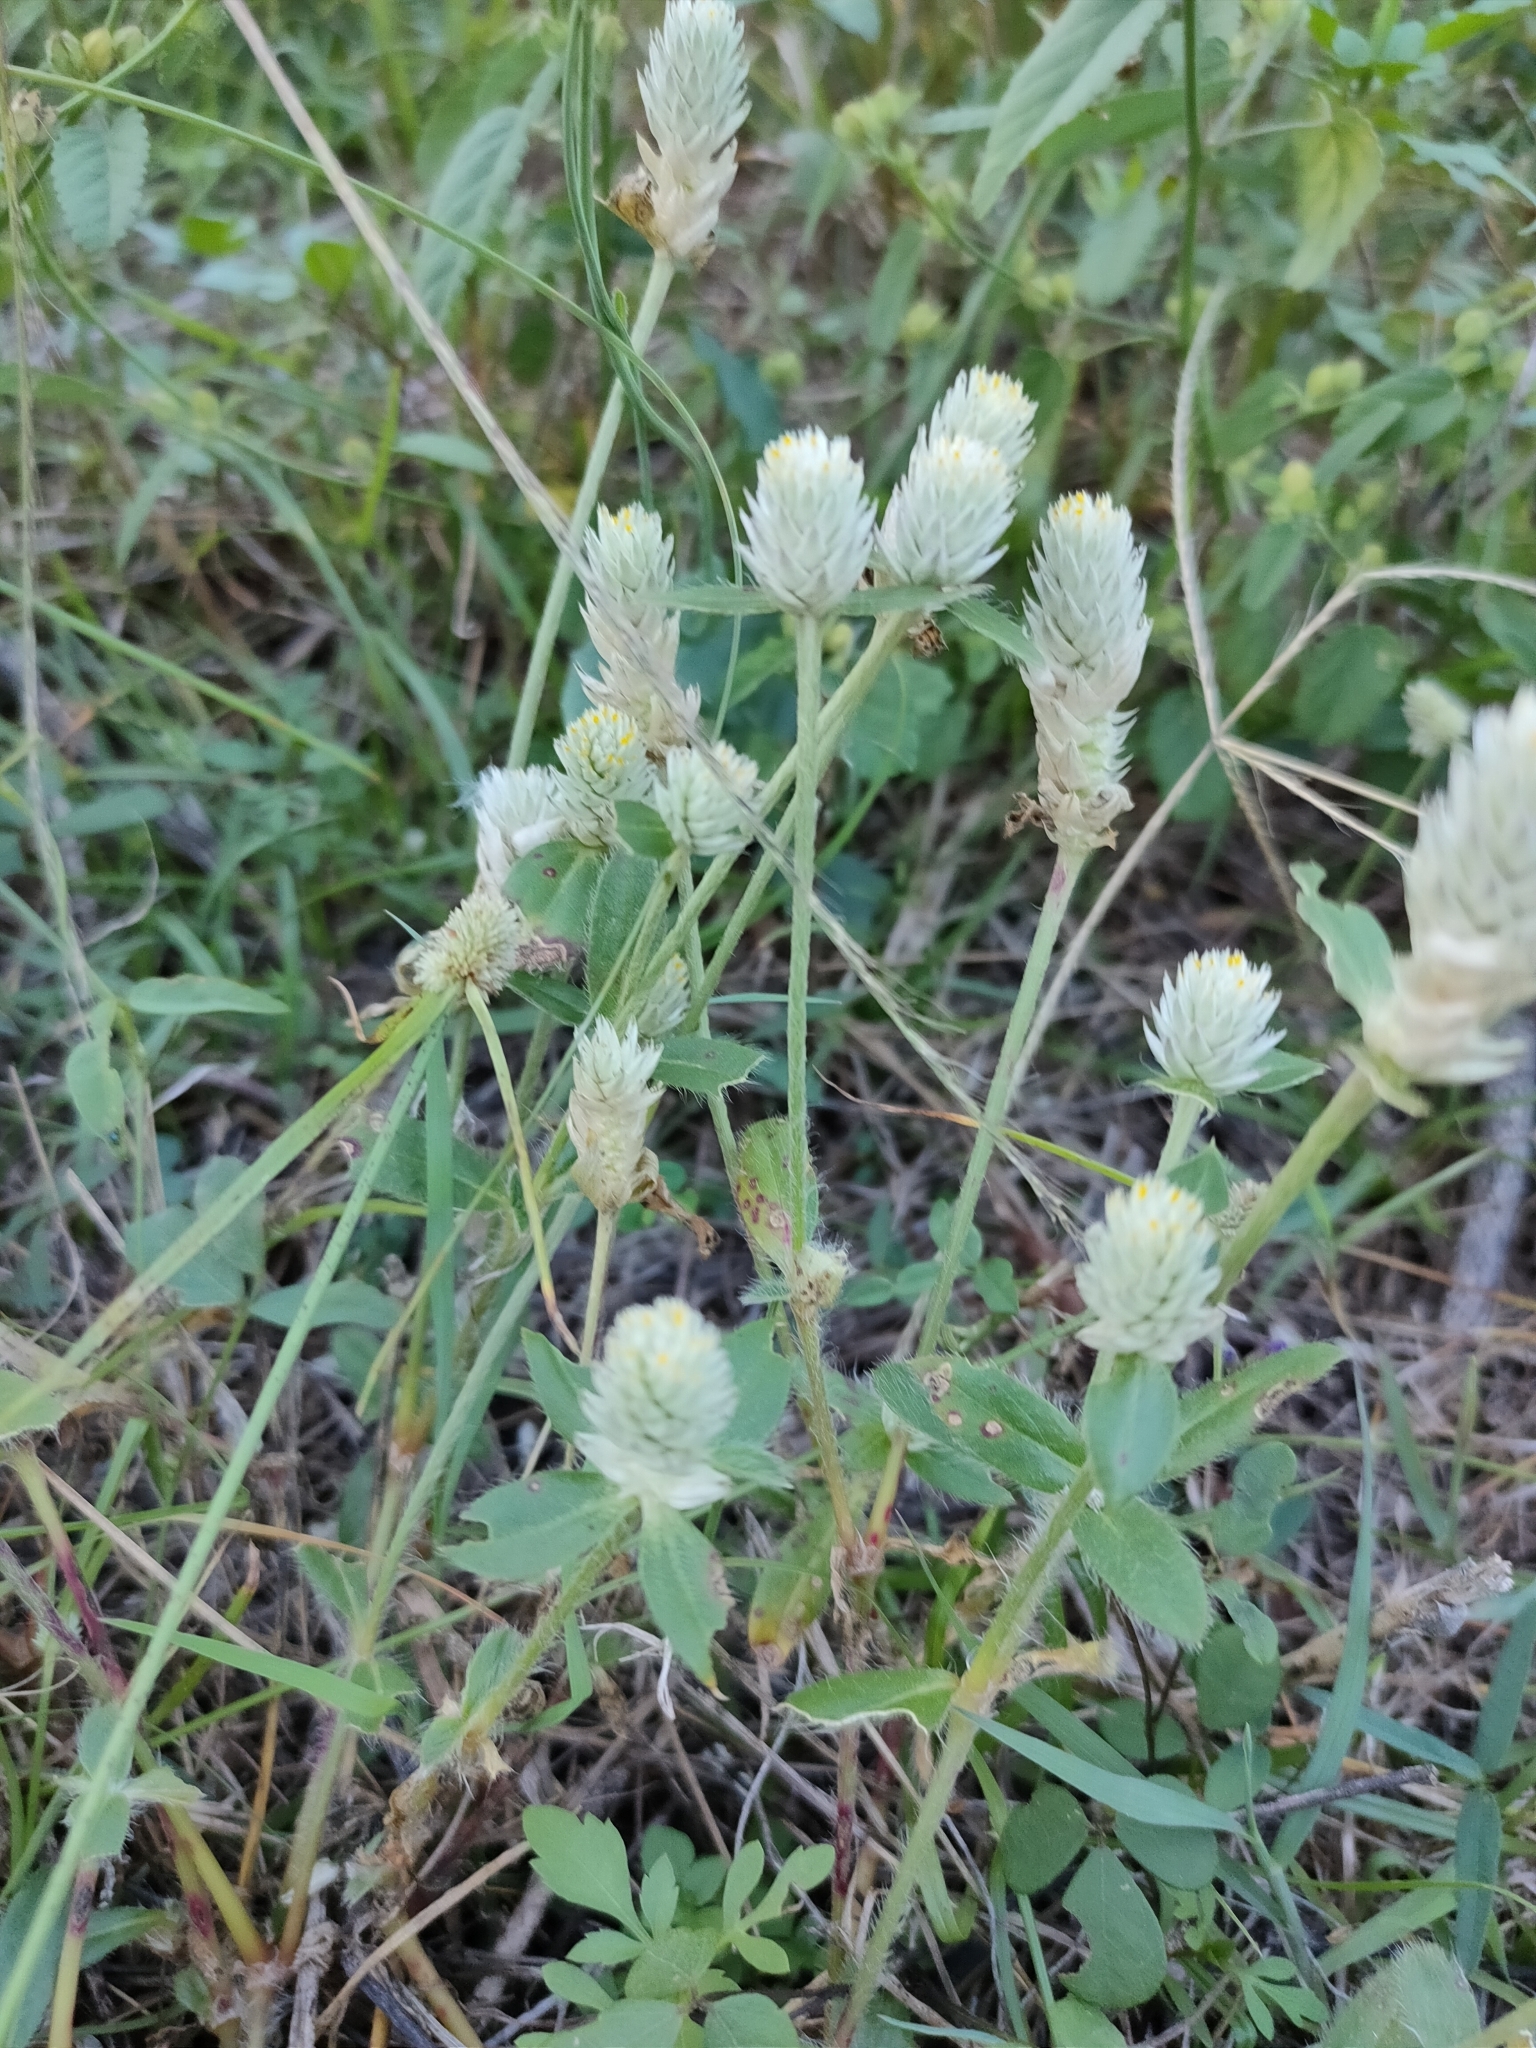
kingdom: Plantae
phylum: Tracheophyta
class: Magnoliopsida
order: Caryophyllales
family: Amaranthaceae
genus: Gomphrena
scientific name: Gomphrena celosioides
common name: Gomphrena-weed
